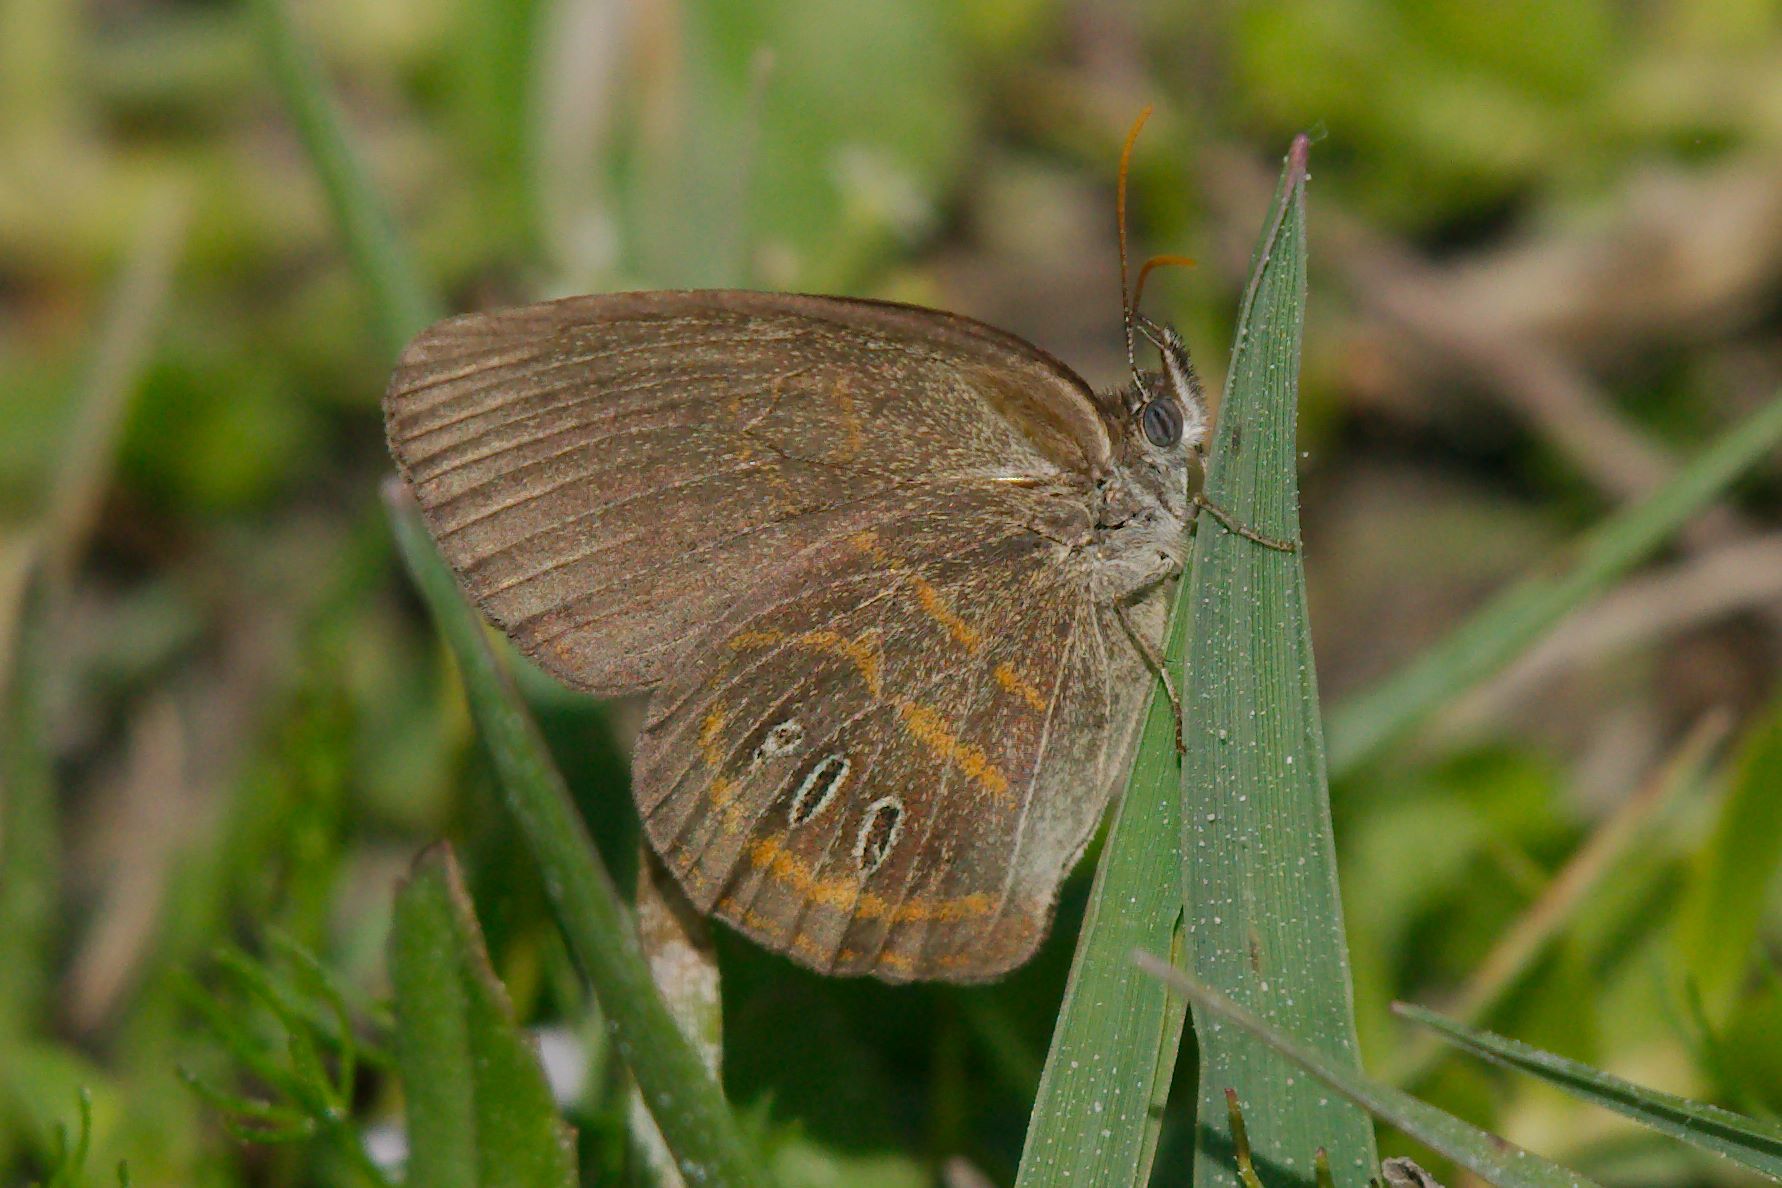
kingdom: Animalia
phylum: Arthropoda
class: Insecta
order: Lepidoptera
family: Nymphalidae
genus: Euptychia
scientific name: Euptychia phocion
